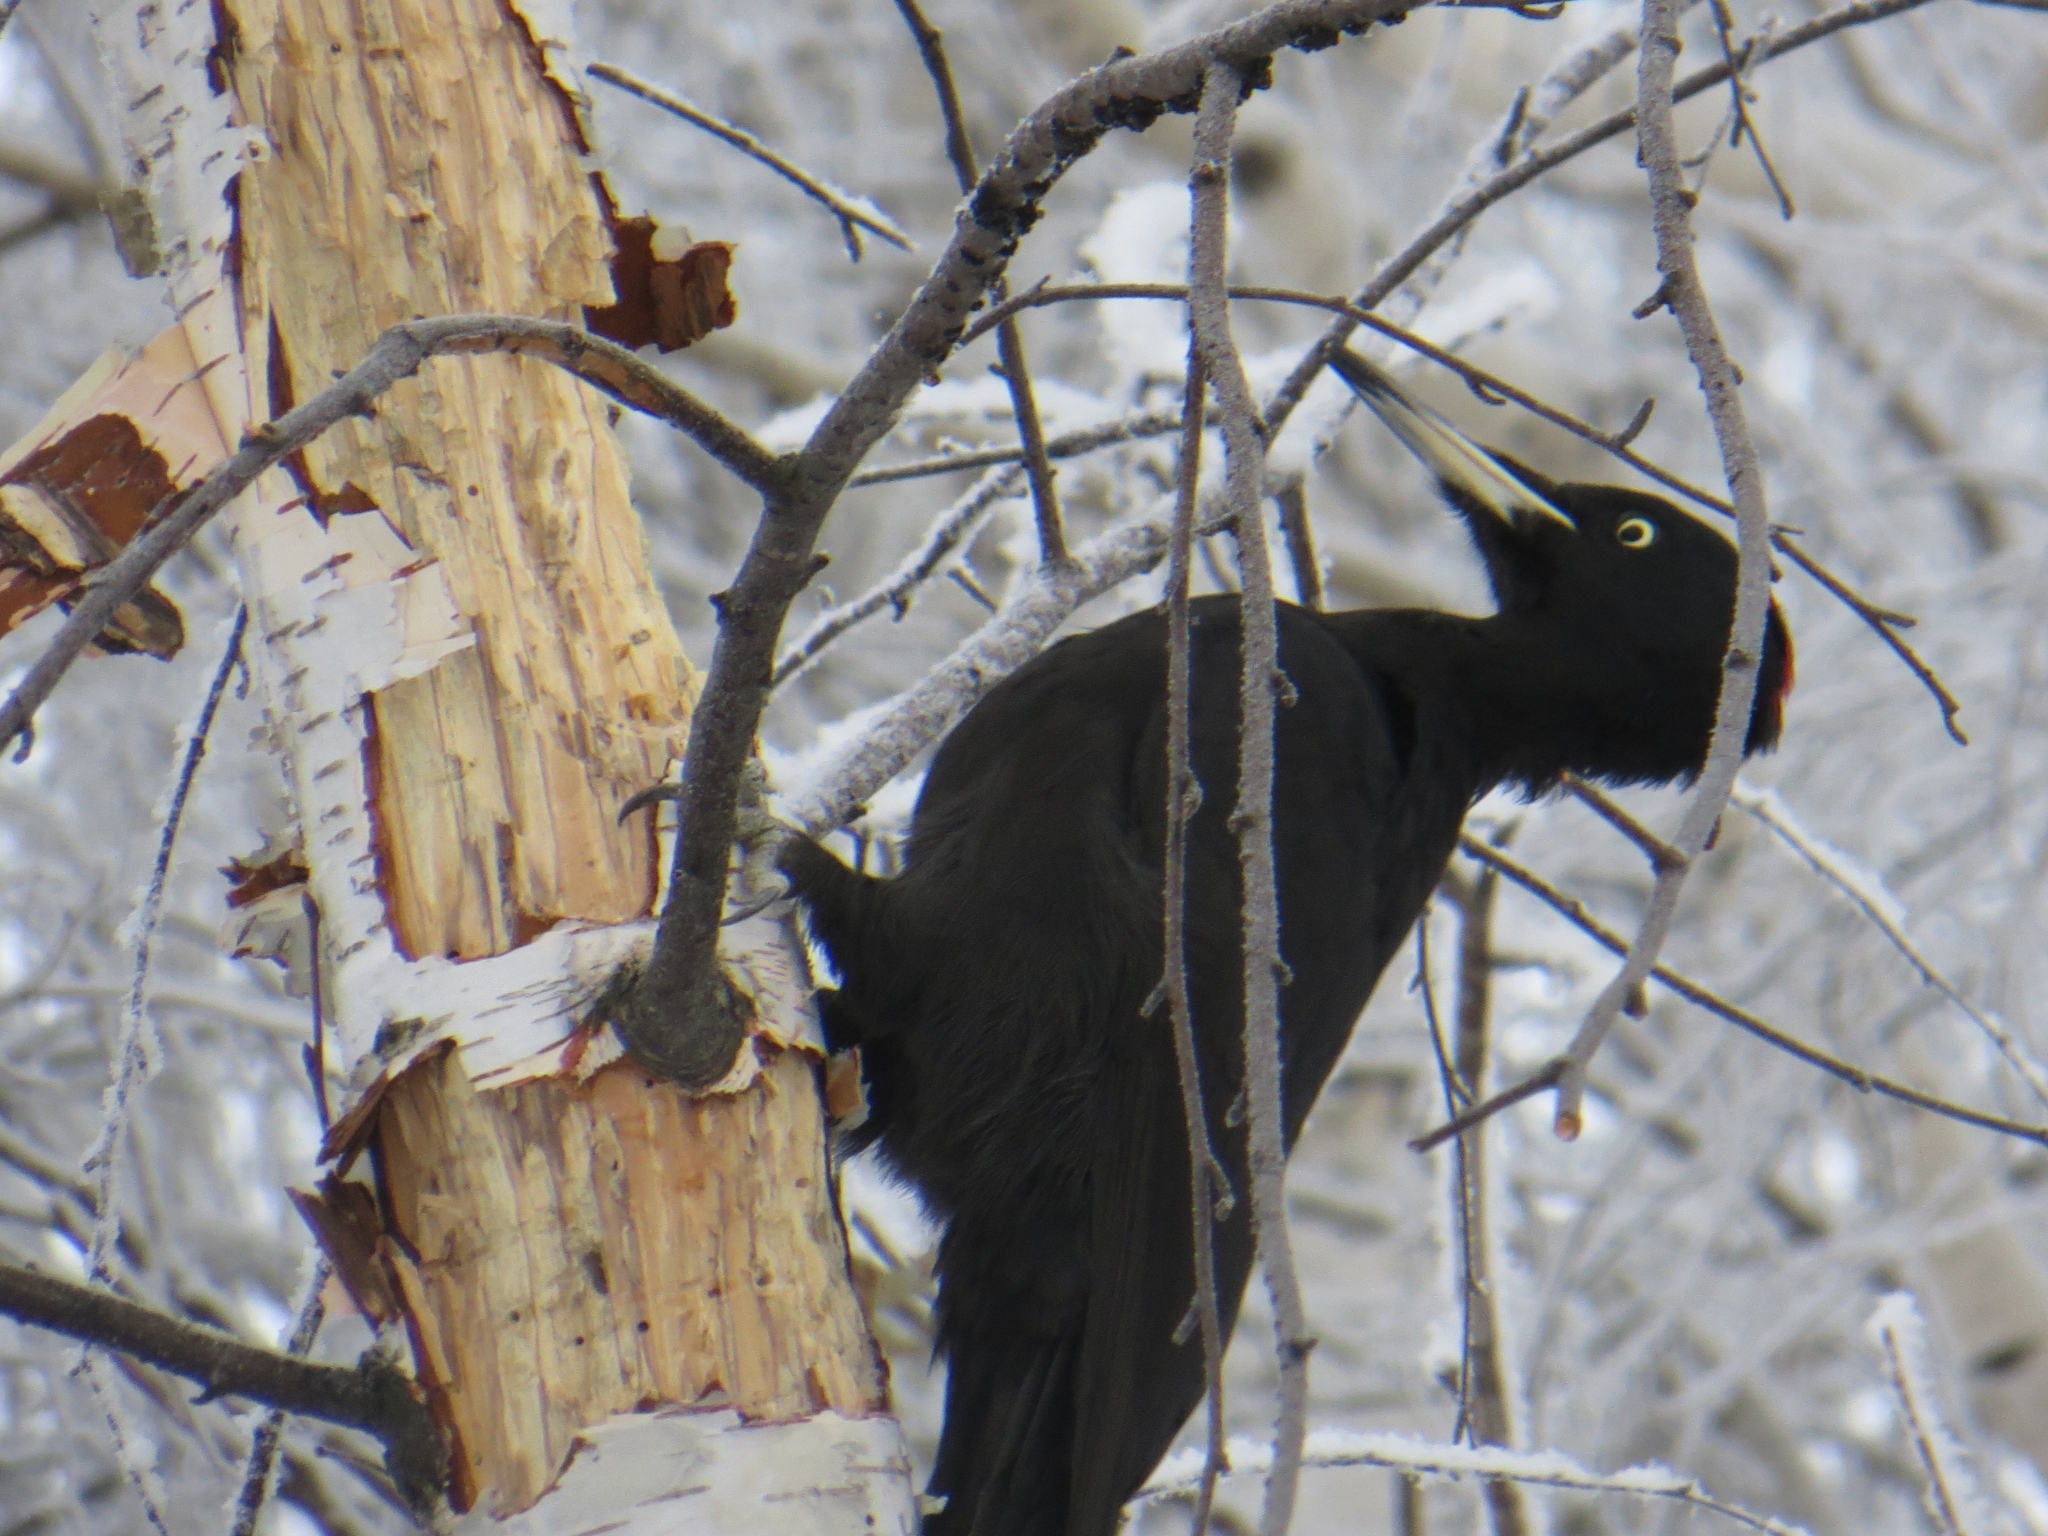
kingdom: Animalia
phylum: Chordata
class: Aves
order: Piciformes
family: Picidae
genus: Dryocopus
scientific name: Dryocopus martius
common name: Black woodpecker
